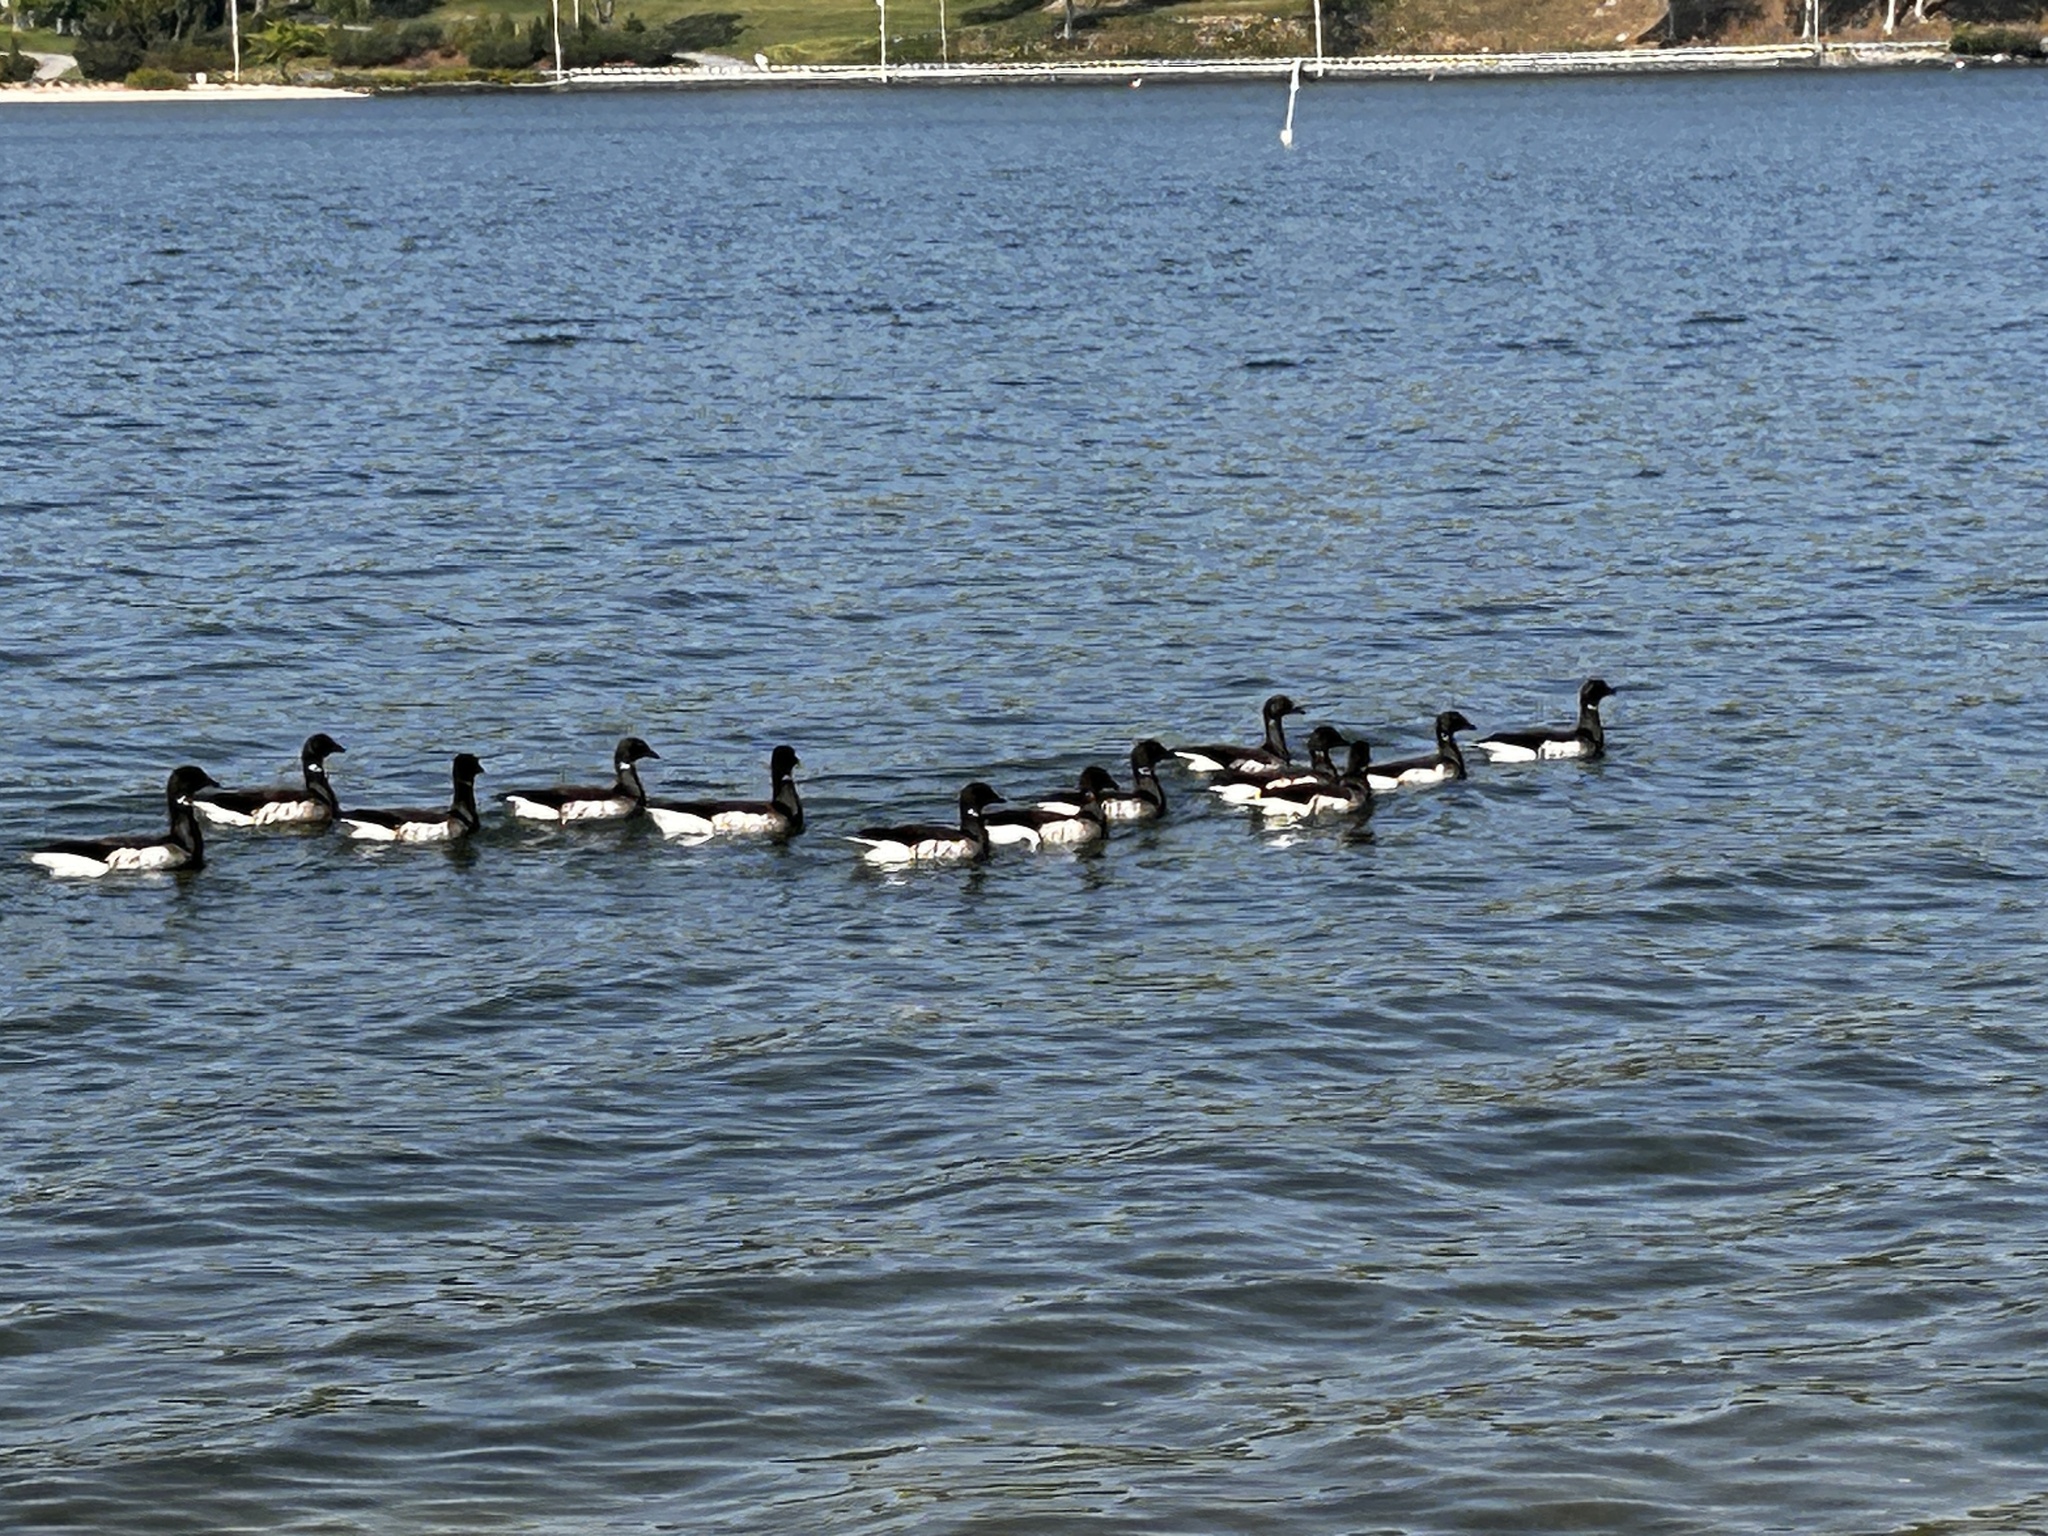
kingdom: Animalia
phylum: Chordata
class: Aves
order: Anseriformes
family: Anatidae
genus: Branta
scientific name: Branta bernicla
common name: Brant goose
